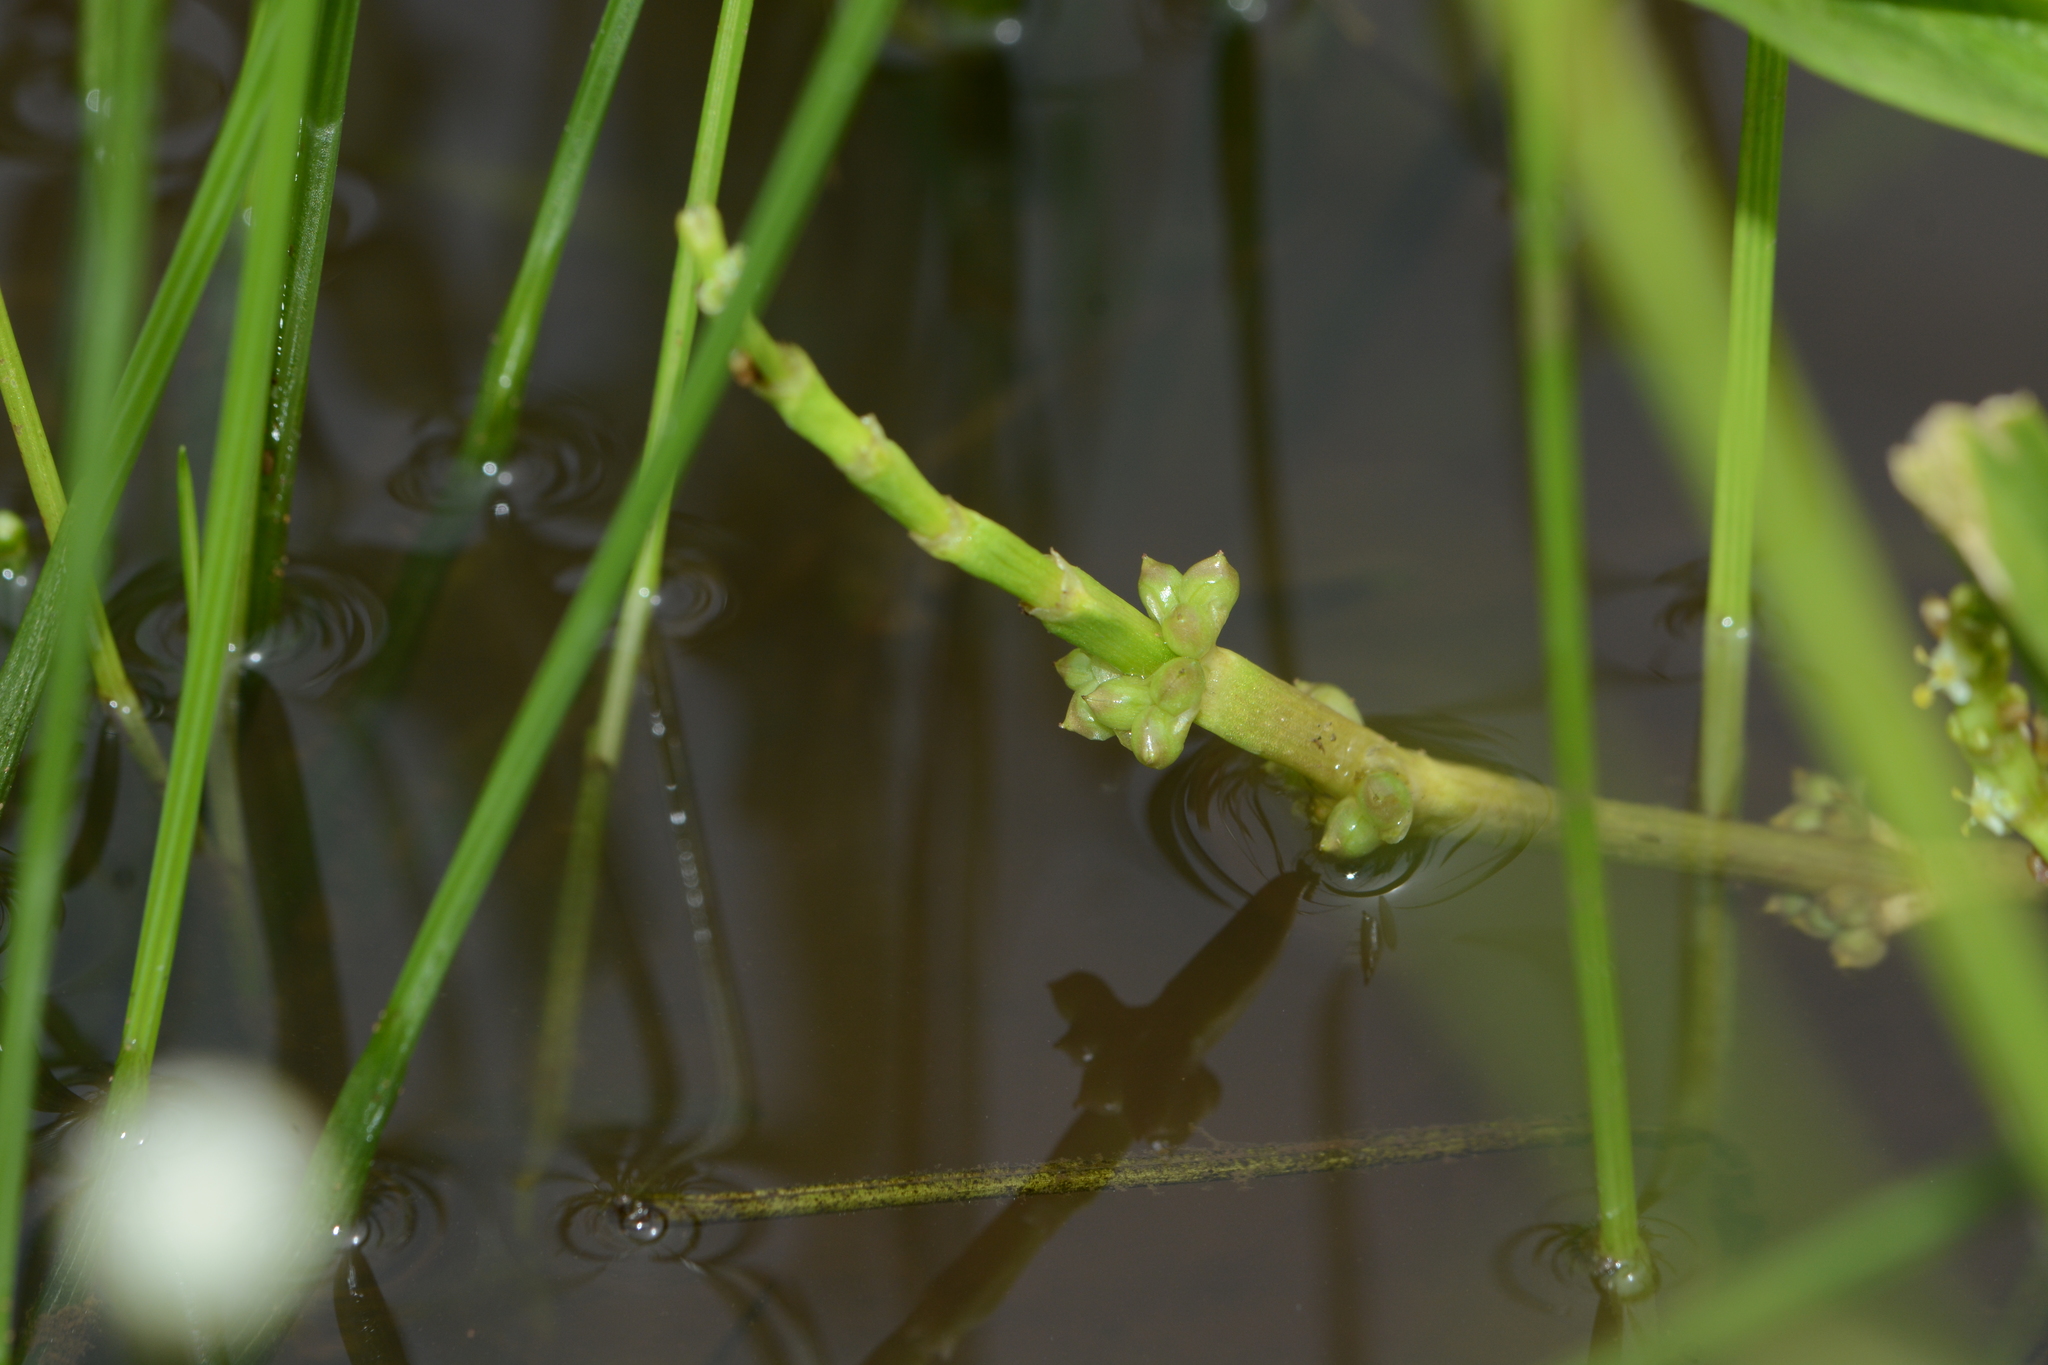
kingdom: Plantae
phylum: Tracheophyta
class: Liliopsida
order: Alismatales
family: Alismataceae
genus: Wiesneria
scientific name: Wiesneria triandra
